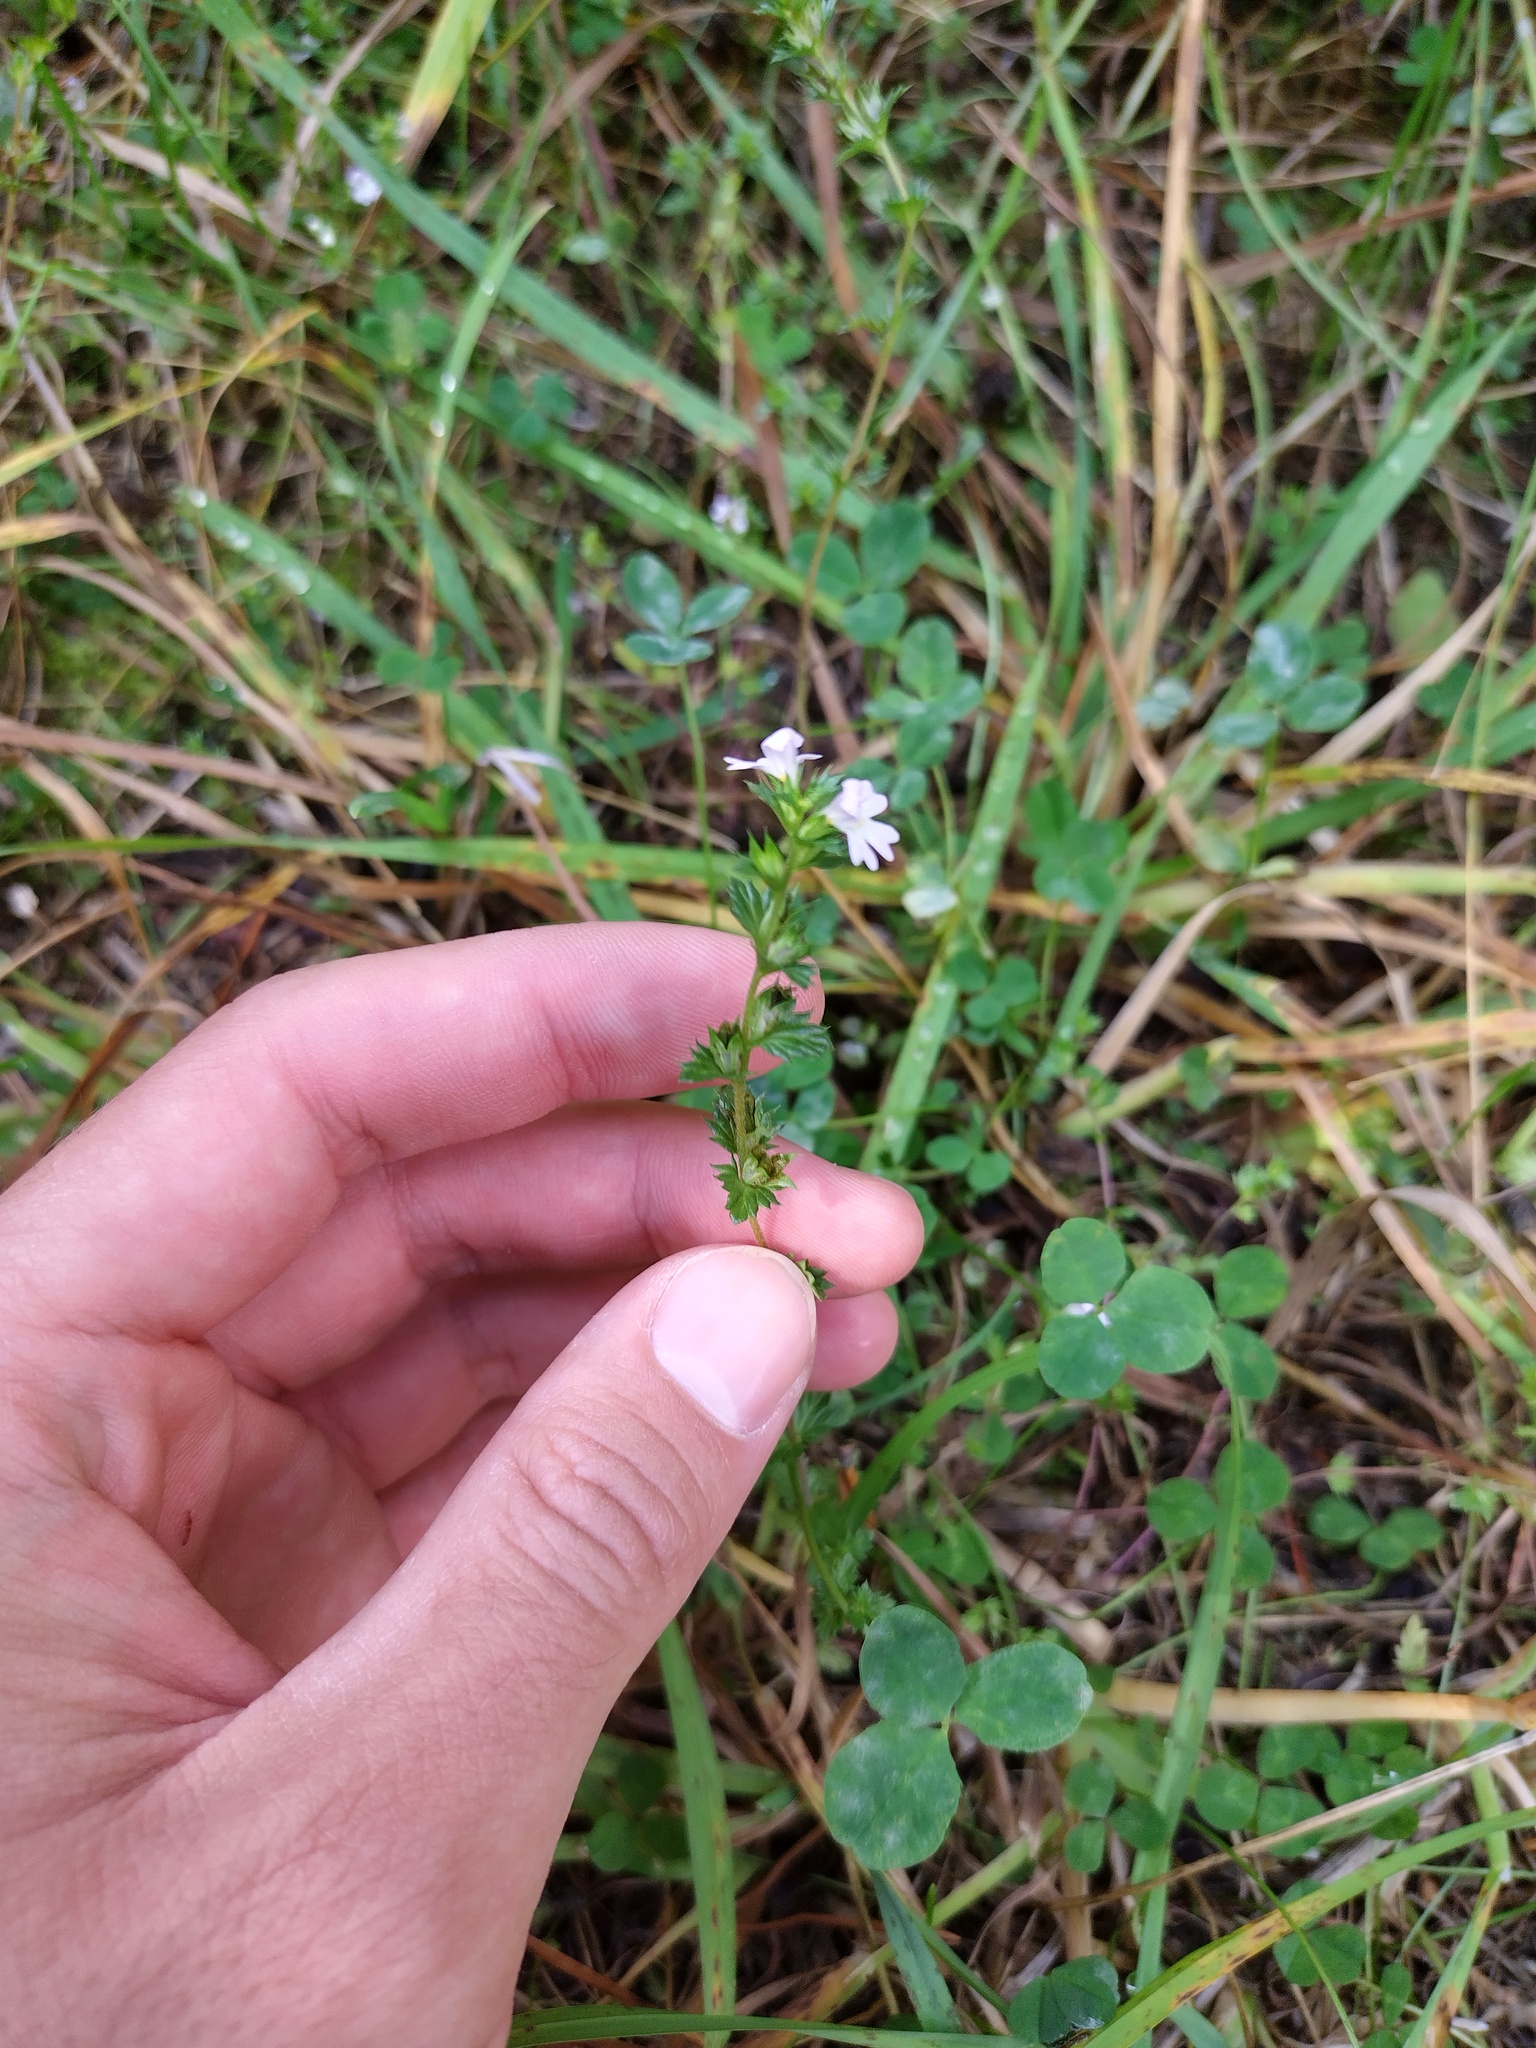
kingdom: Plantae
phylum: Tracheophyta
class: Magnoliopsida
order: Lamiales
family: Orobanchaceae
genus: Euphrasia
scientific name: Euphrasia nemorosa
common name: Common eyebright
